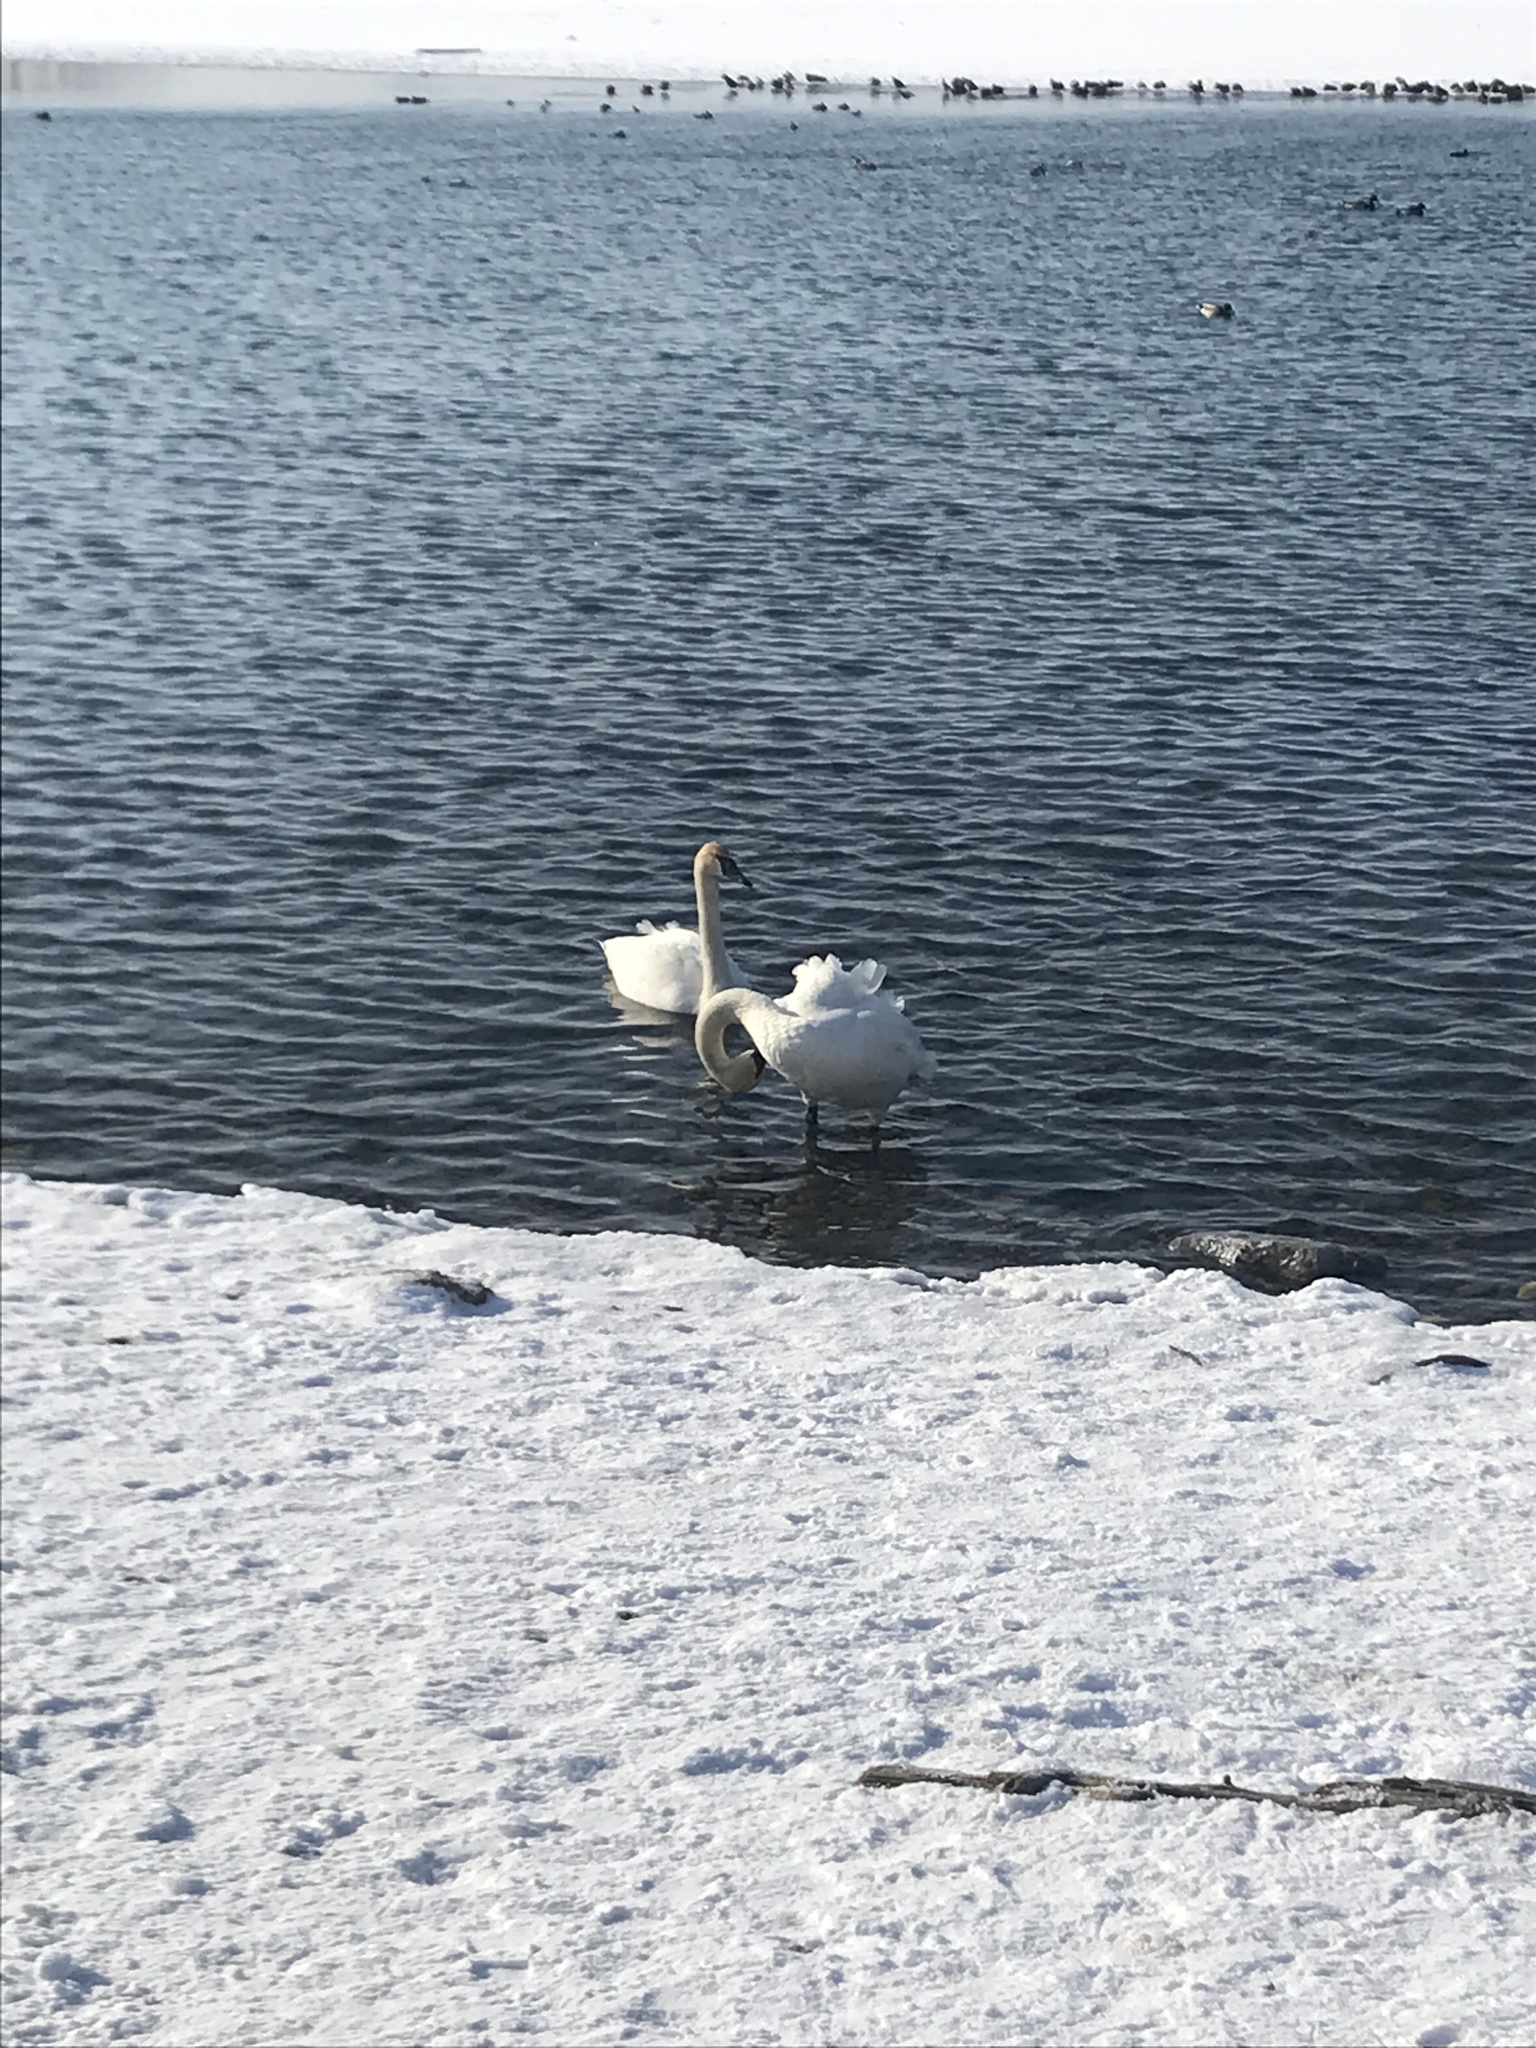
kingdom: Animalia
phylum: Chordata
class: Aves
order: Anseriformes
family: Anatidae
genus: Cygnus
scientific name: Cygnus buccinator
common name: Trumpeter swan
